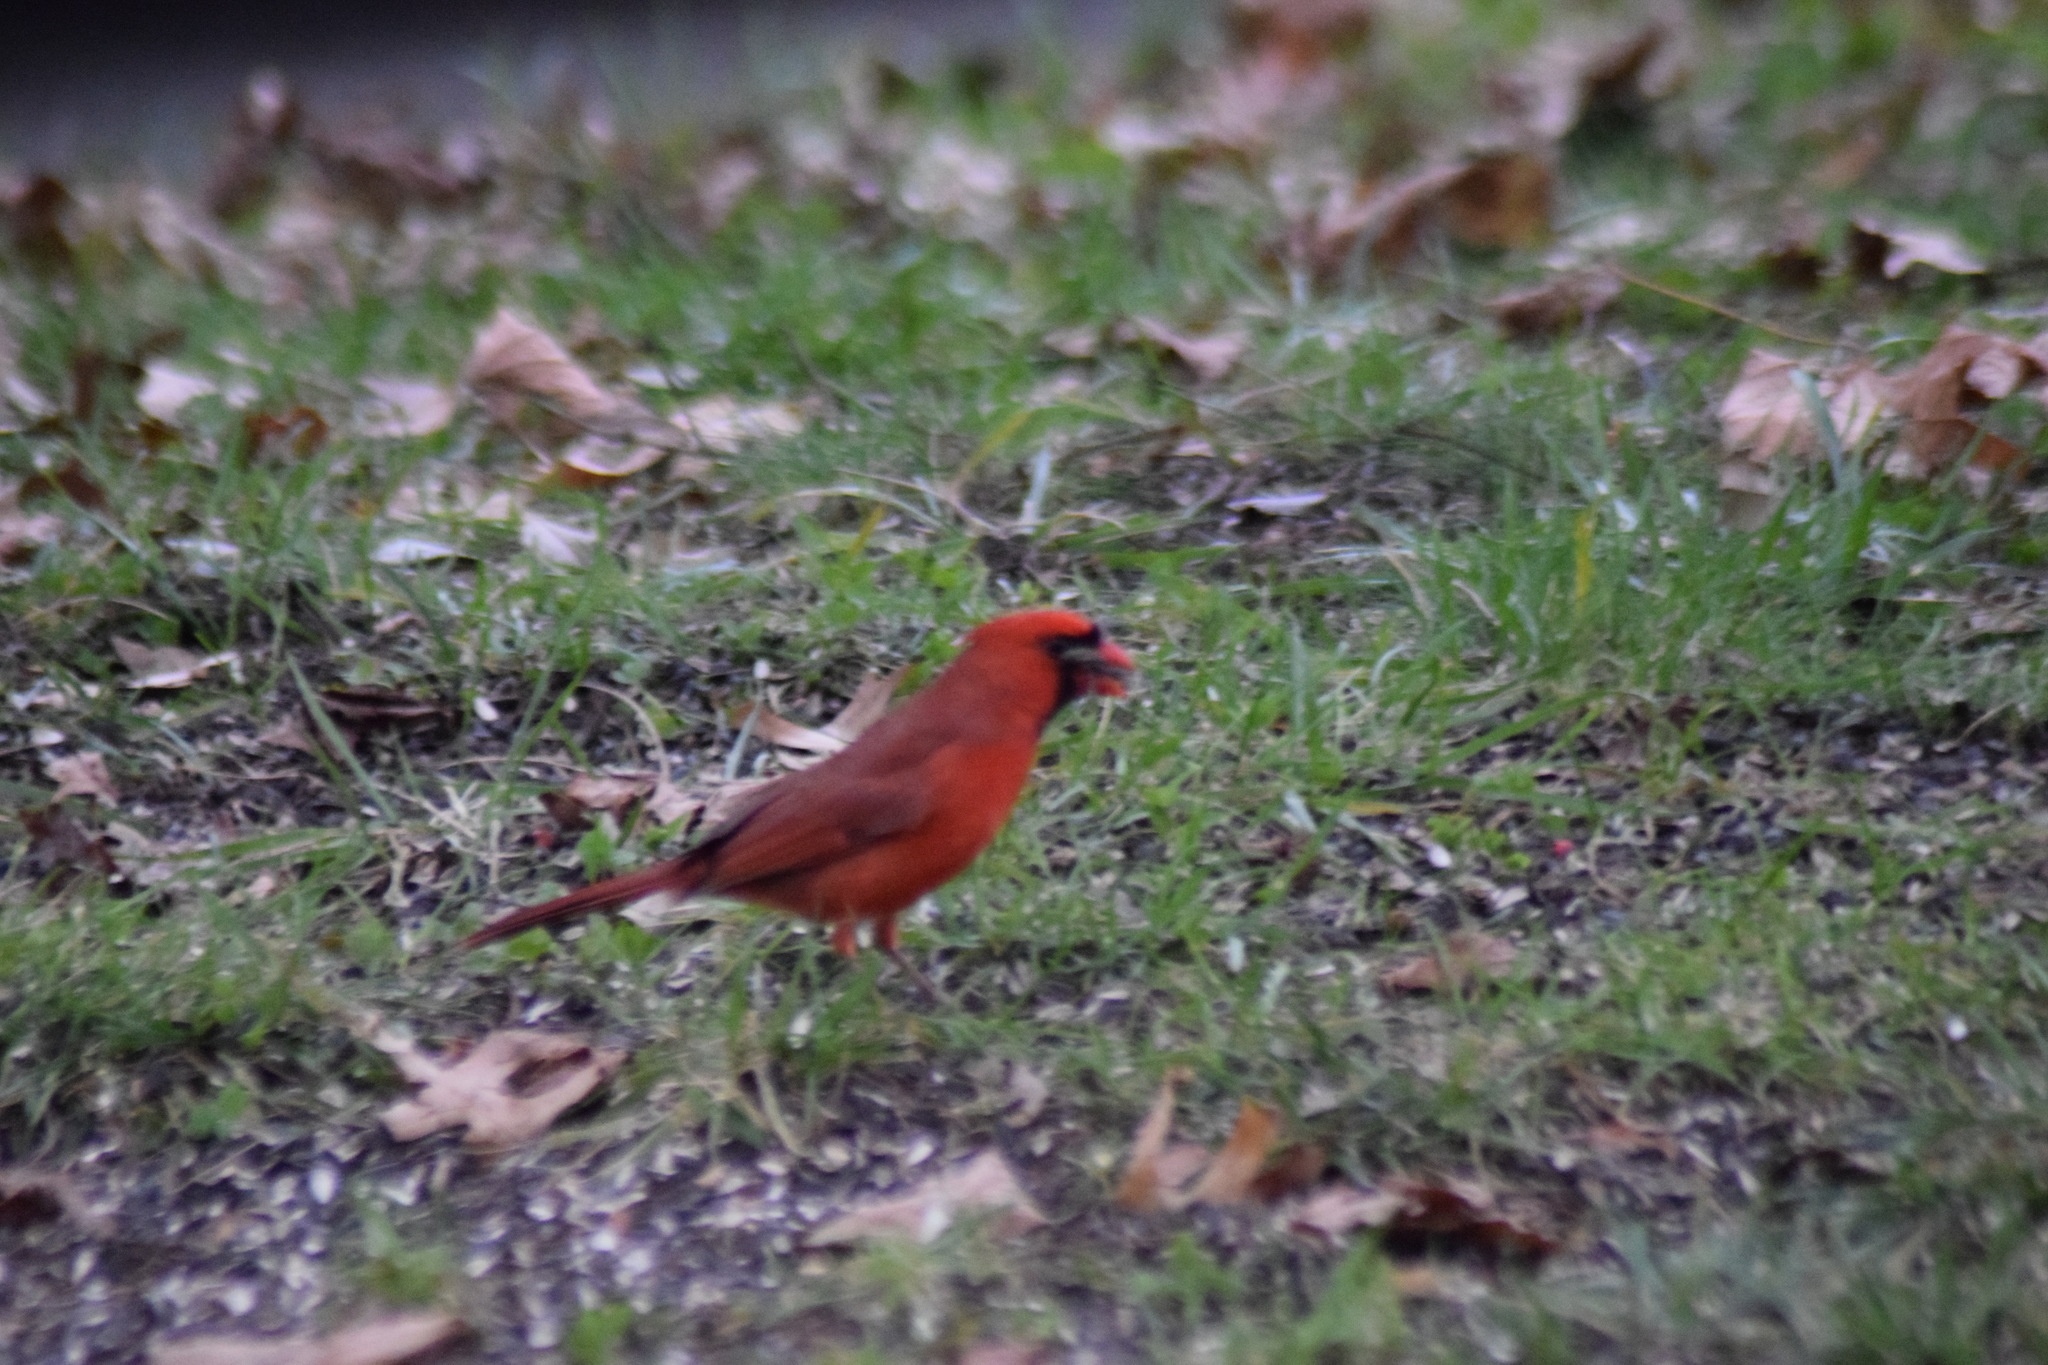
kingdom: Animalia
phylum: Chordata
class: Aves
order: Passeriformes
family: Cardinalidae
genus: Cardinalis
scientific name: Cardinalis cardinalis
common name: Northern cardinal
